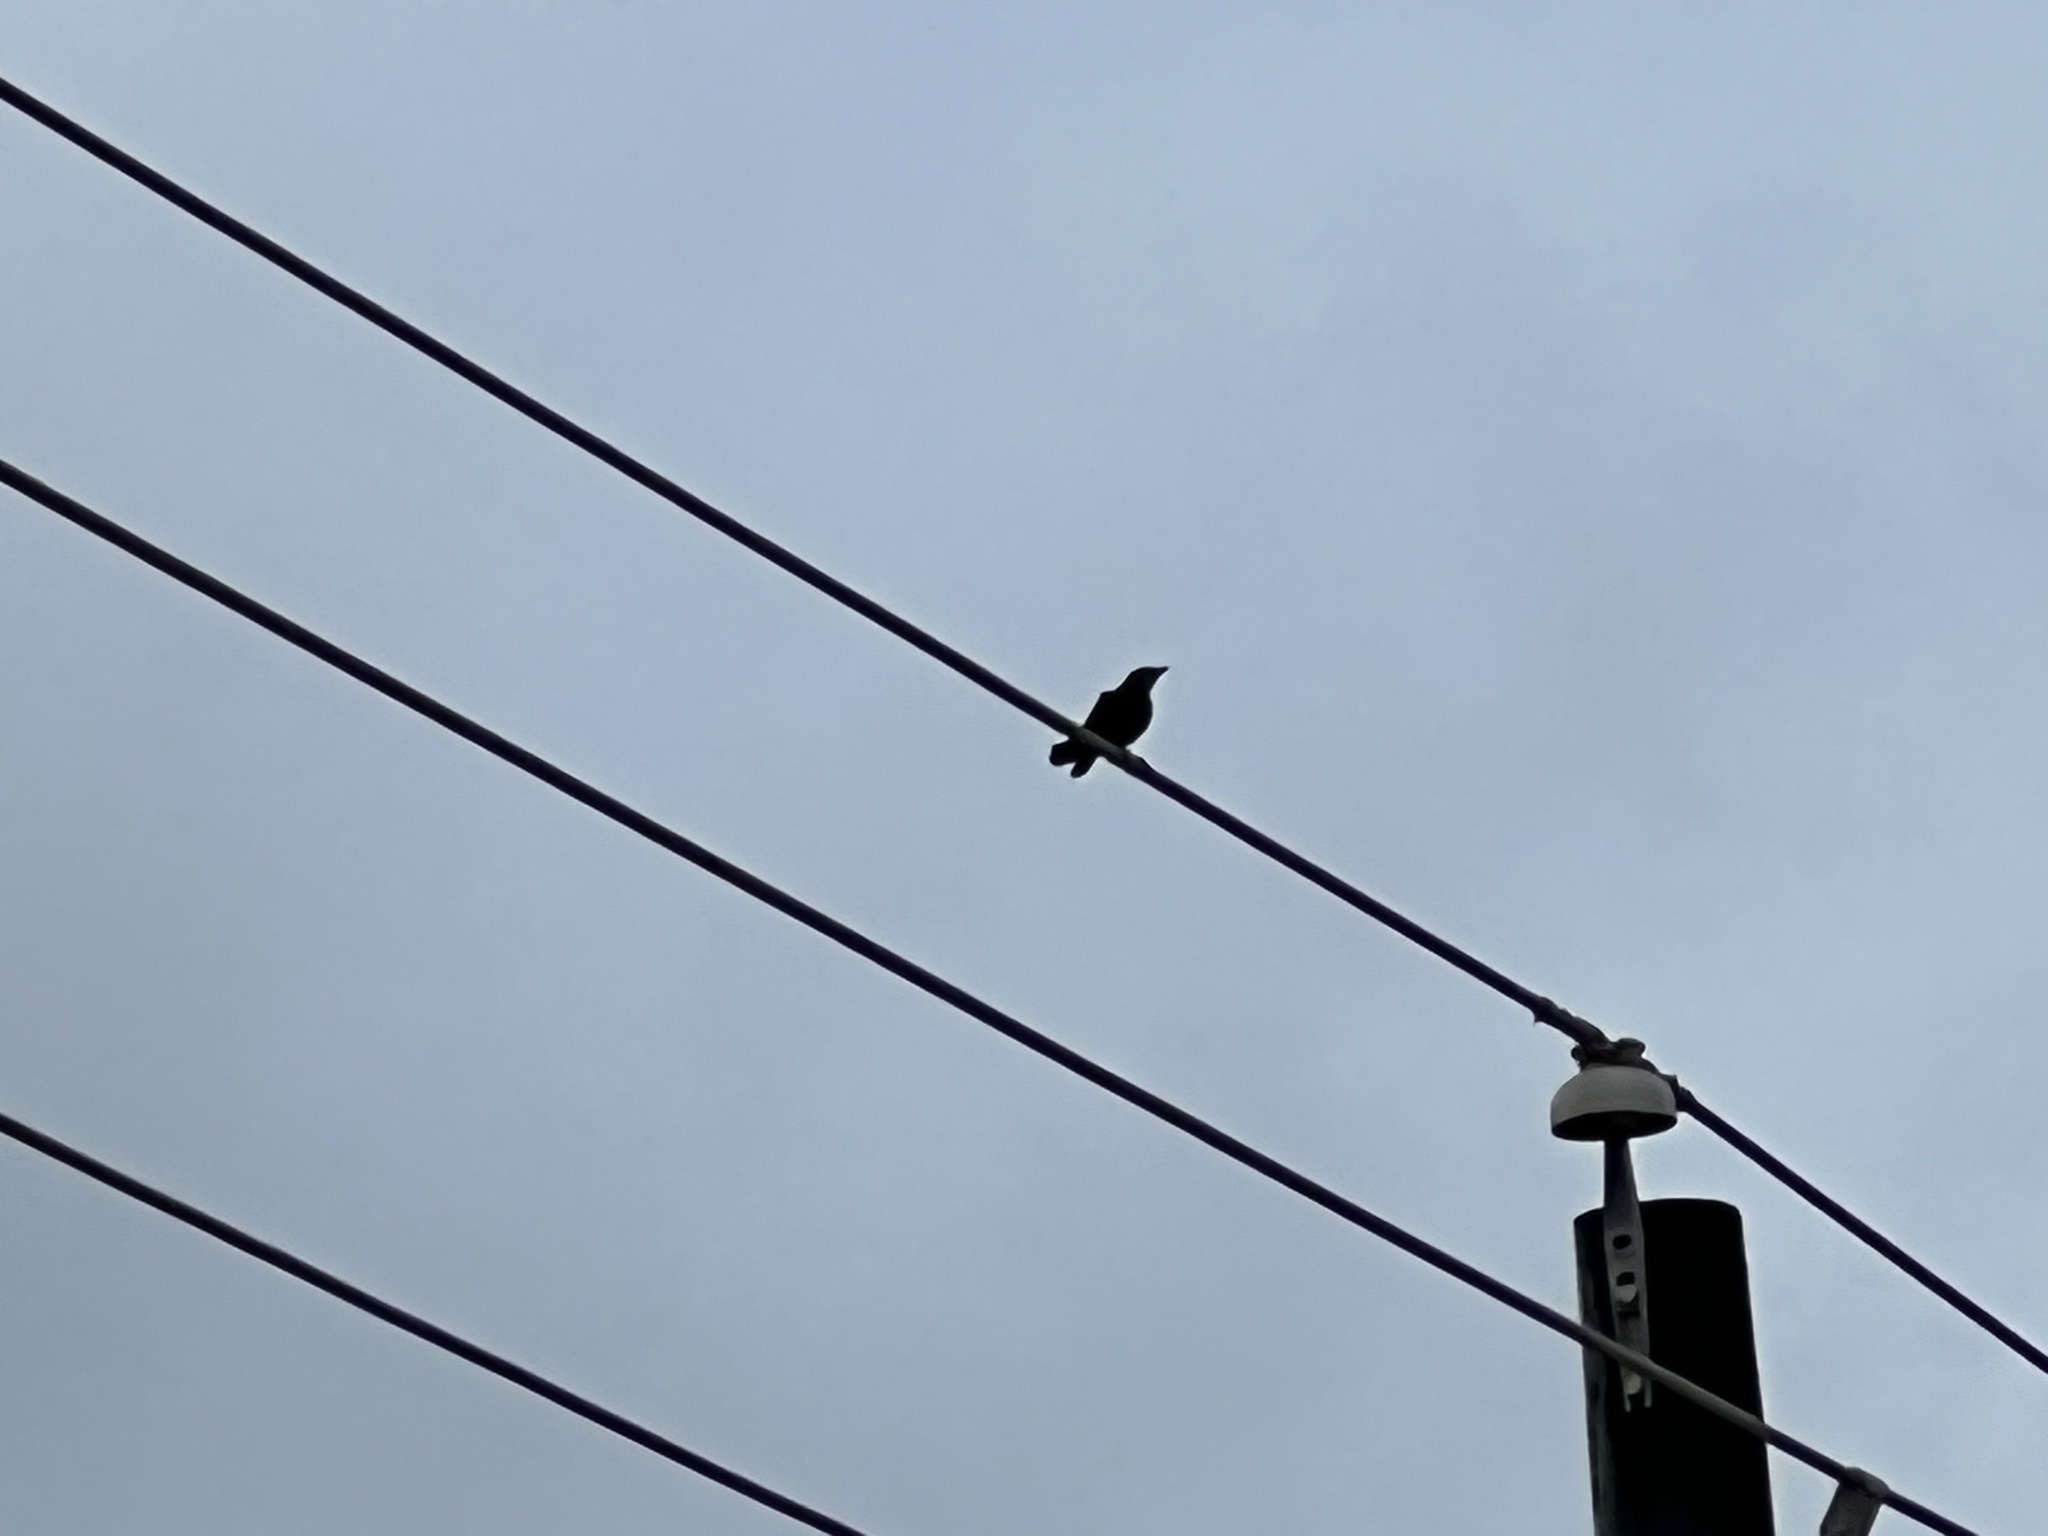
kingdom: Animalia
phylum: Chordata
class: Aves
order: Columbiformes
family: Columbidae
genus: Streptopelia
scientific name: Streptopelia decaocto
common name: Eurasian collared dove
